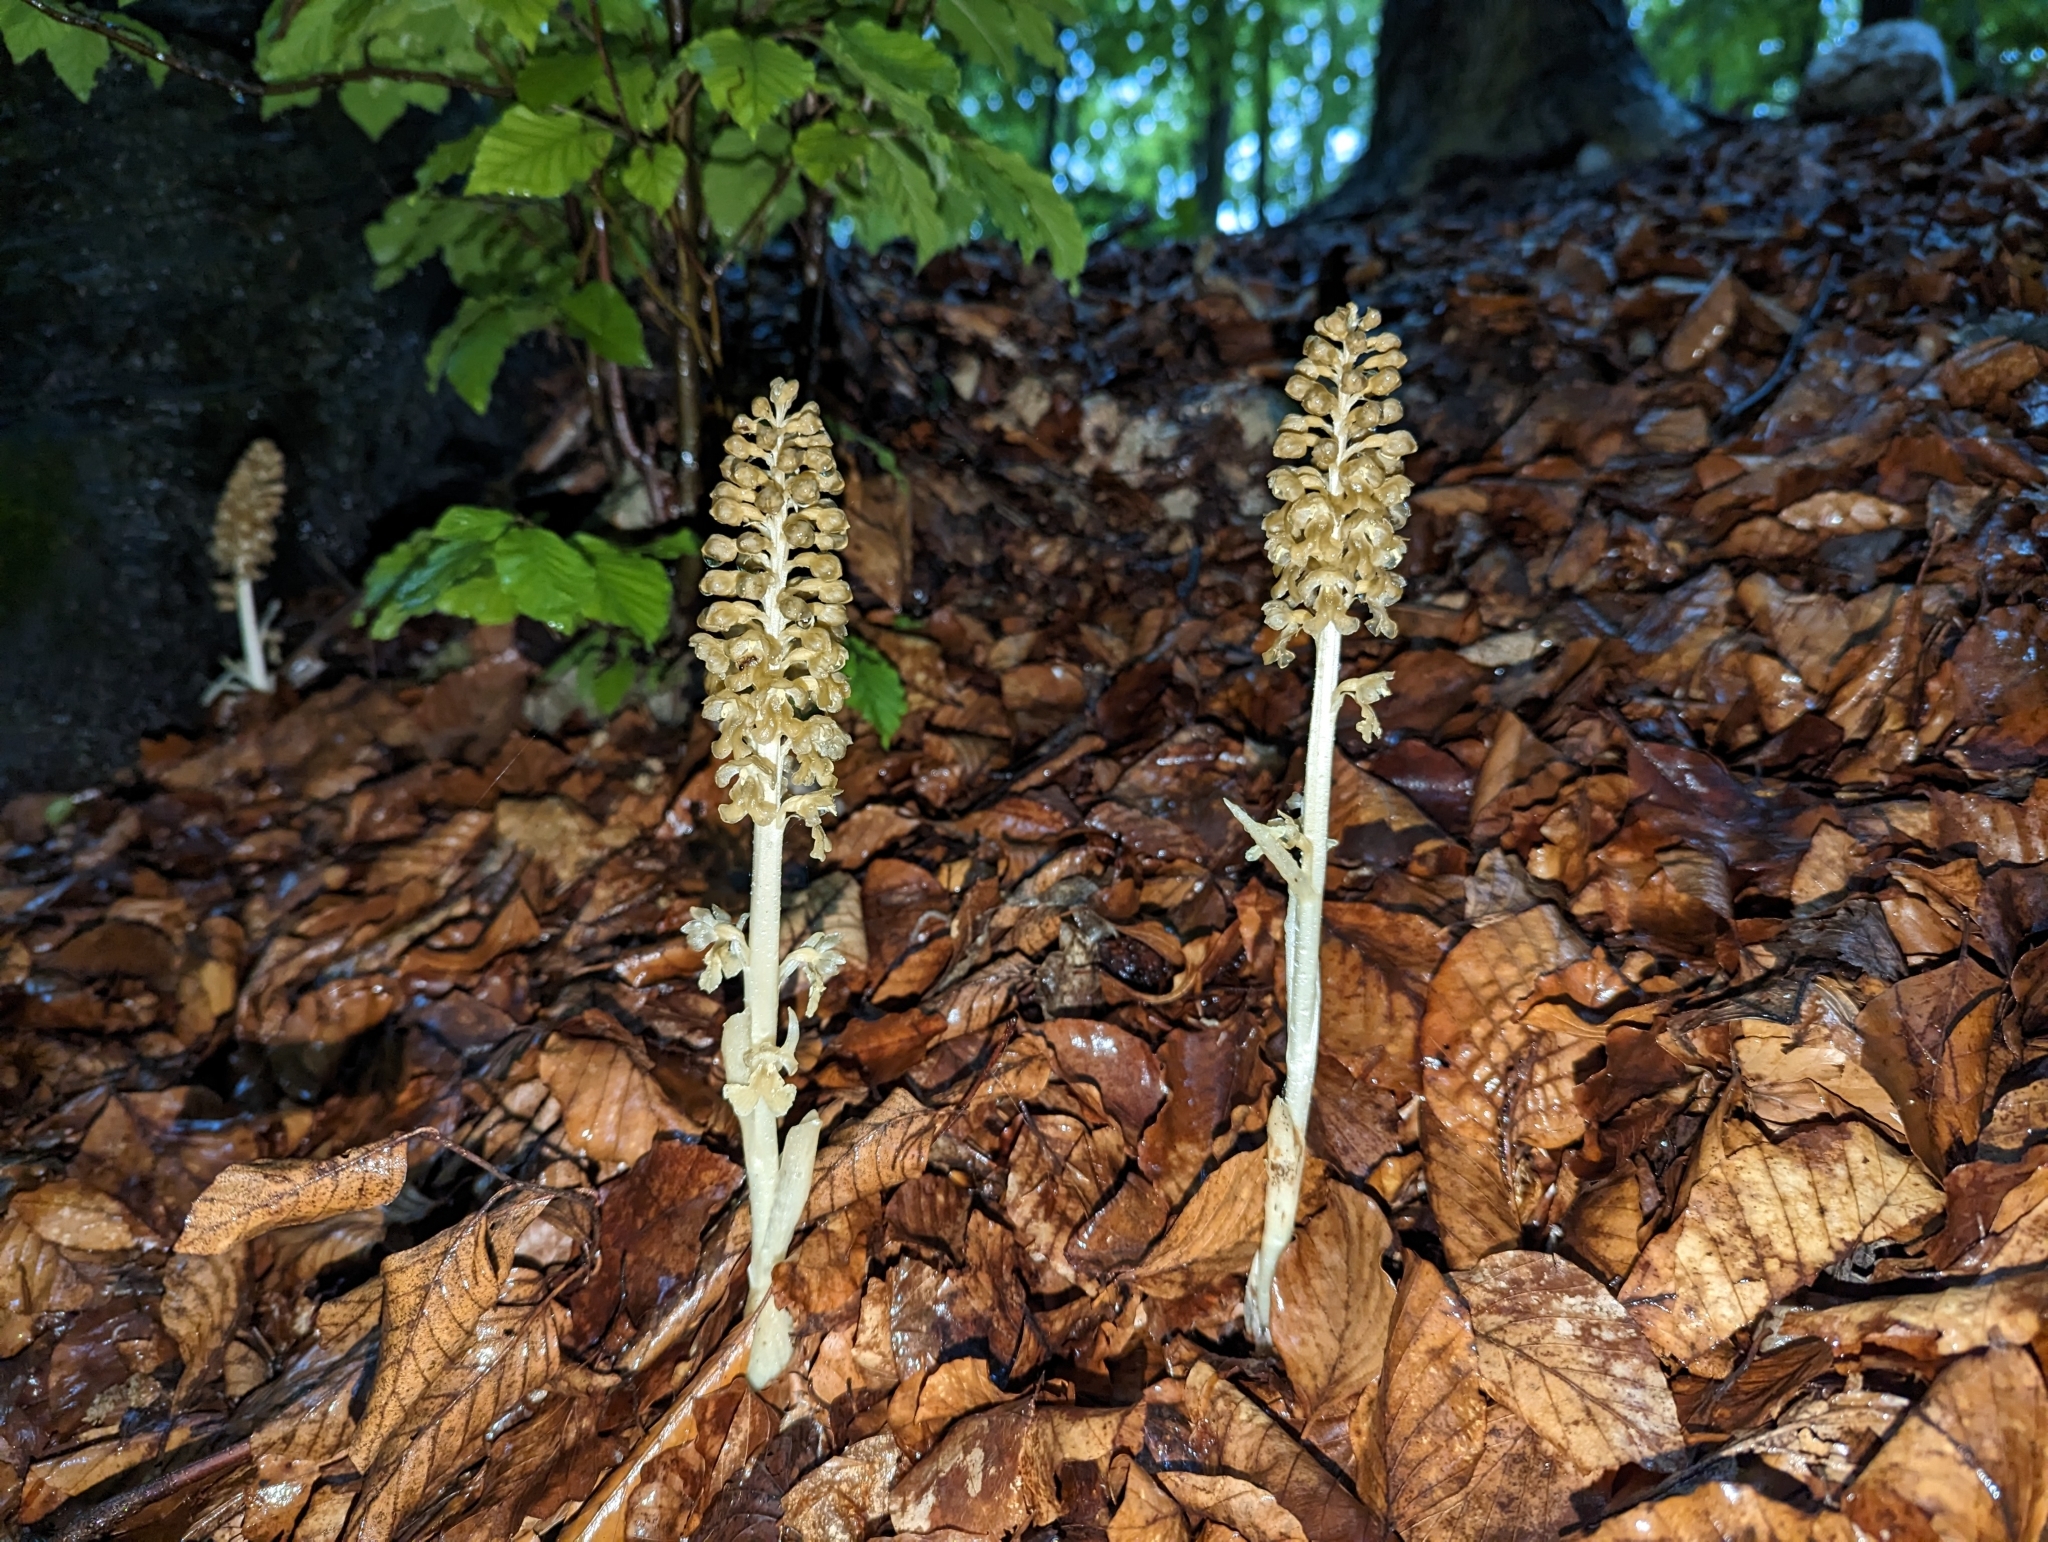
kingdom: Plantae
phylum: Tracheophyta
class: Liliopsida
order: Asparagales
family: Orchidaceae
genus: Neottia
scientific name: Neottia nidus-avis
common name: Bird's-nest orchid
